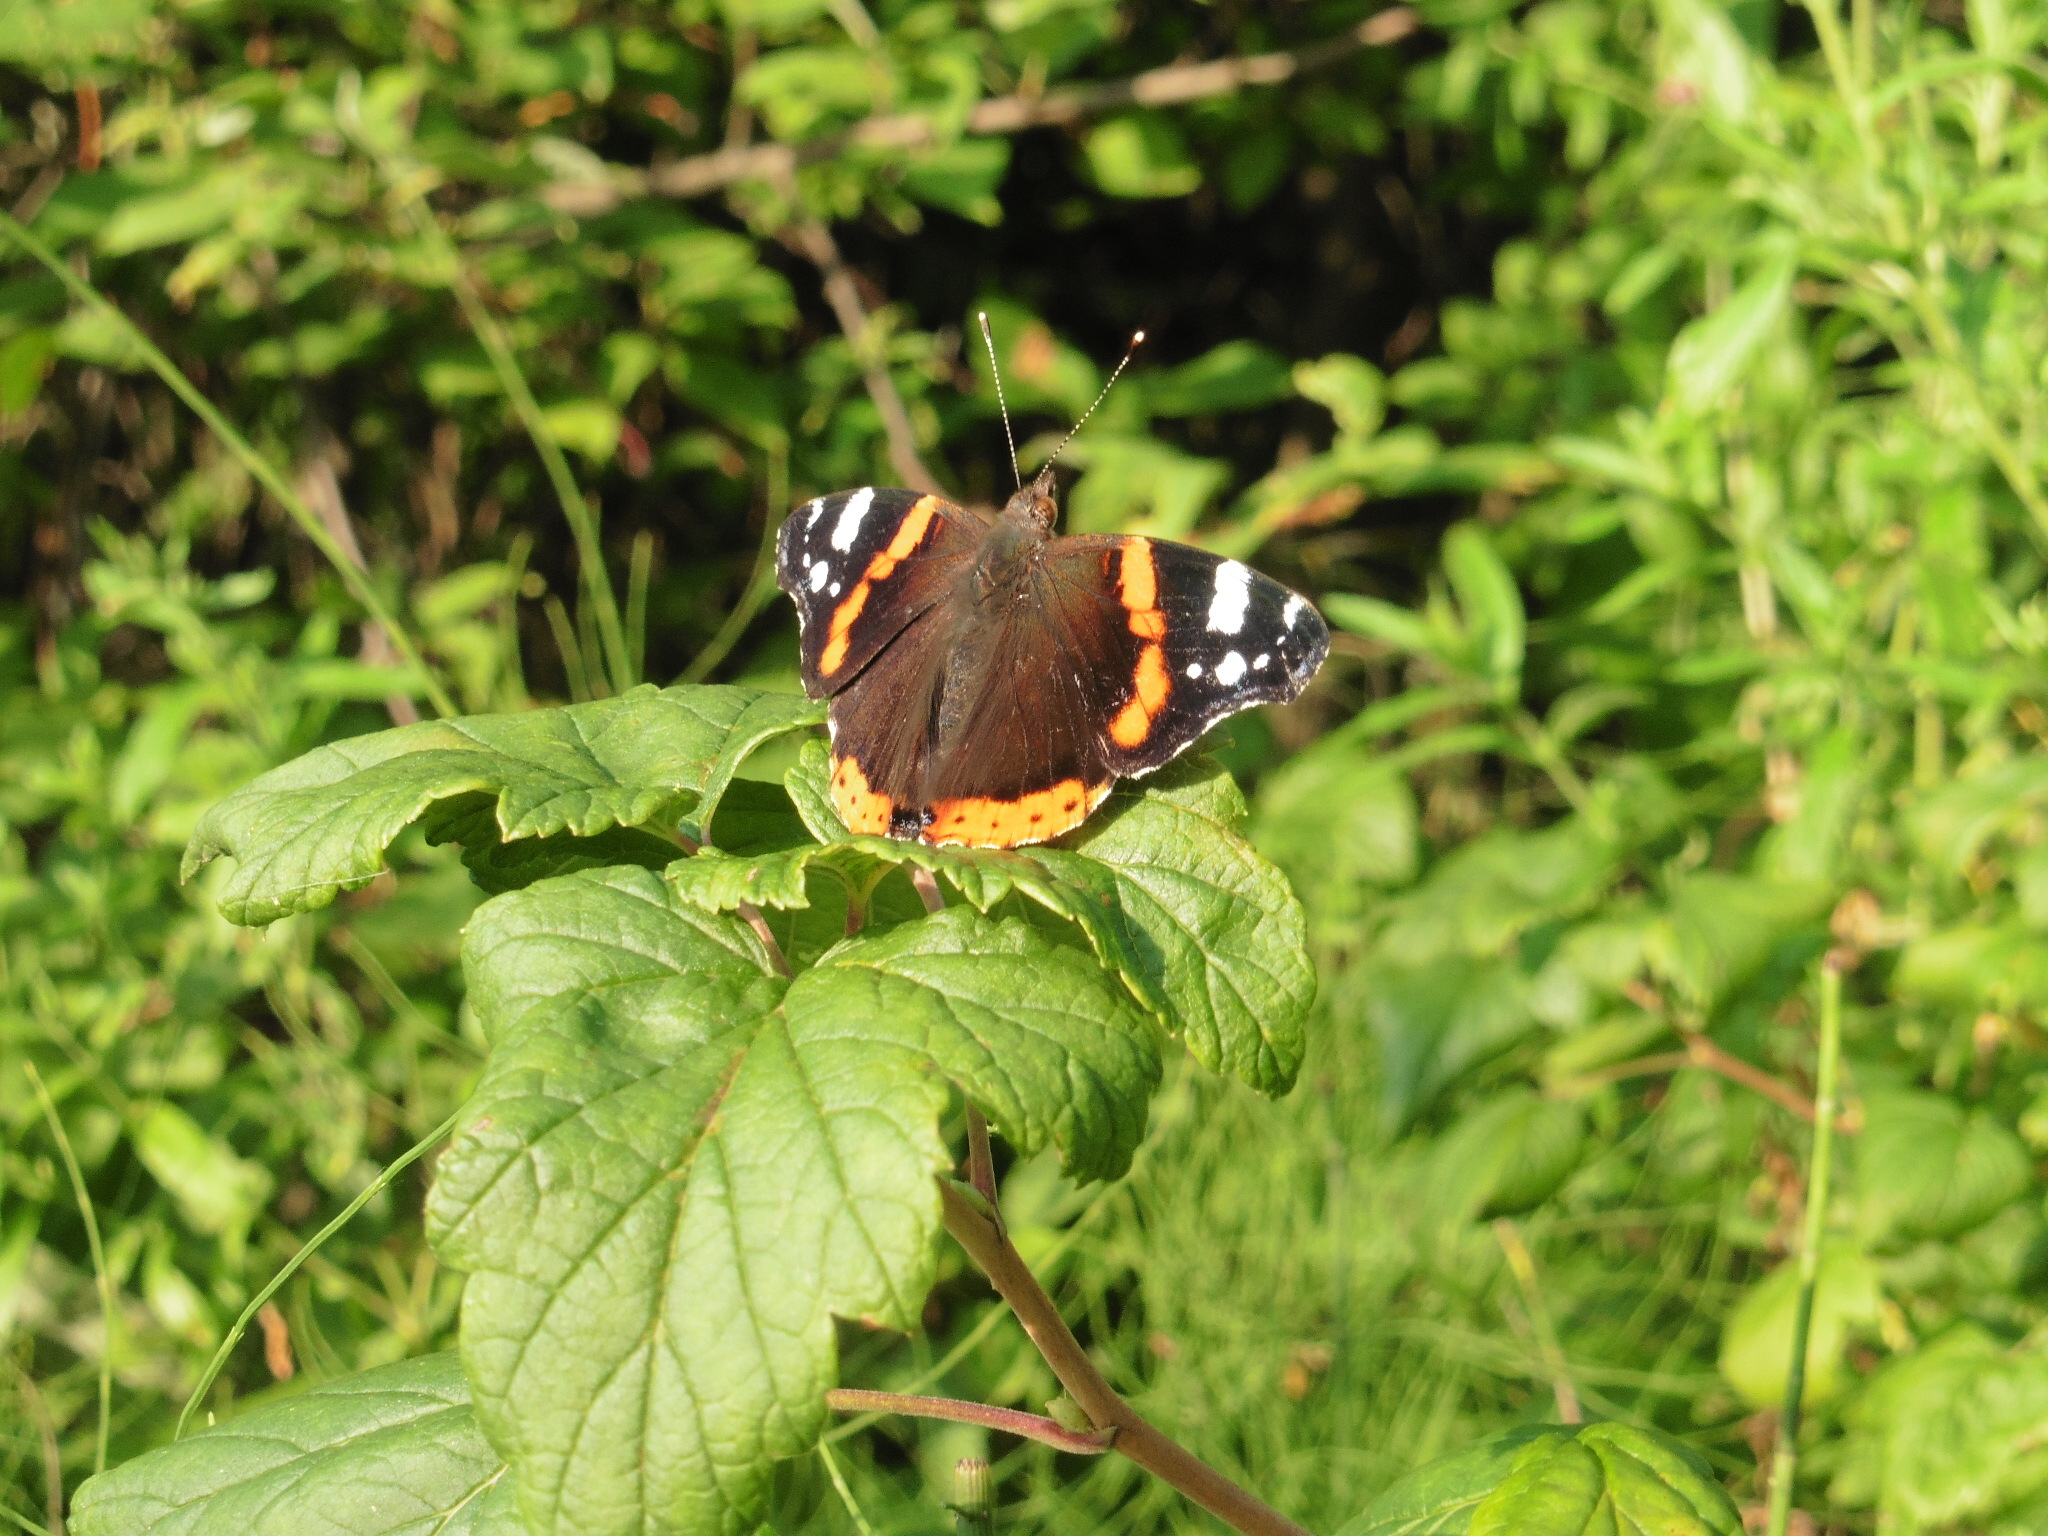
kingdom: Animalia
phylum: Arthropoda
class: Insecta
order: Lepidoptera
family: Nymphalidae
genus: Vanessa
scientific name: Vanessa atalanta
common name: Red admiral
